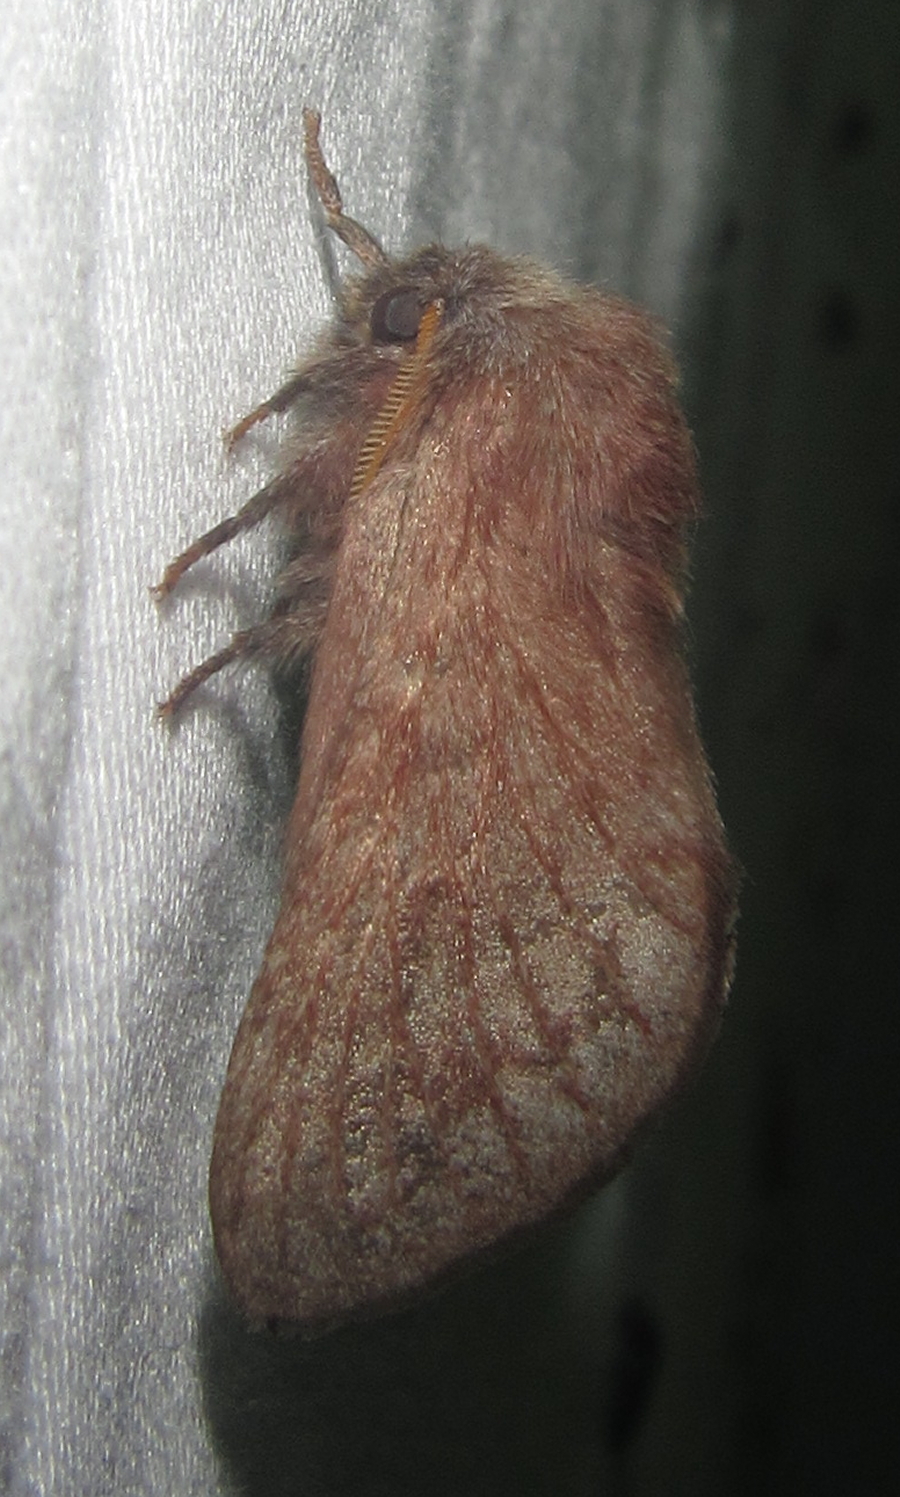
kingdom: Animalia
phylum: Arthropoda
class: Insecta
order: Lepidoptera
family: Lasiocampidae
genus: Anadiasa
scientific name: Anadiasa punctifascia
